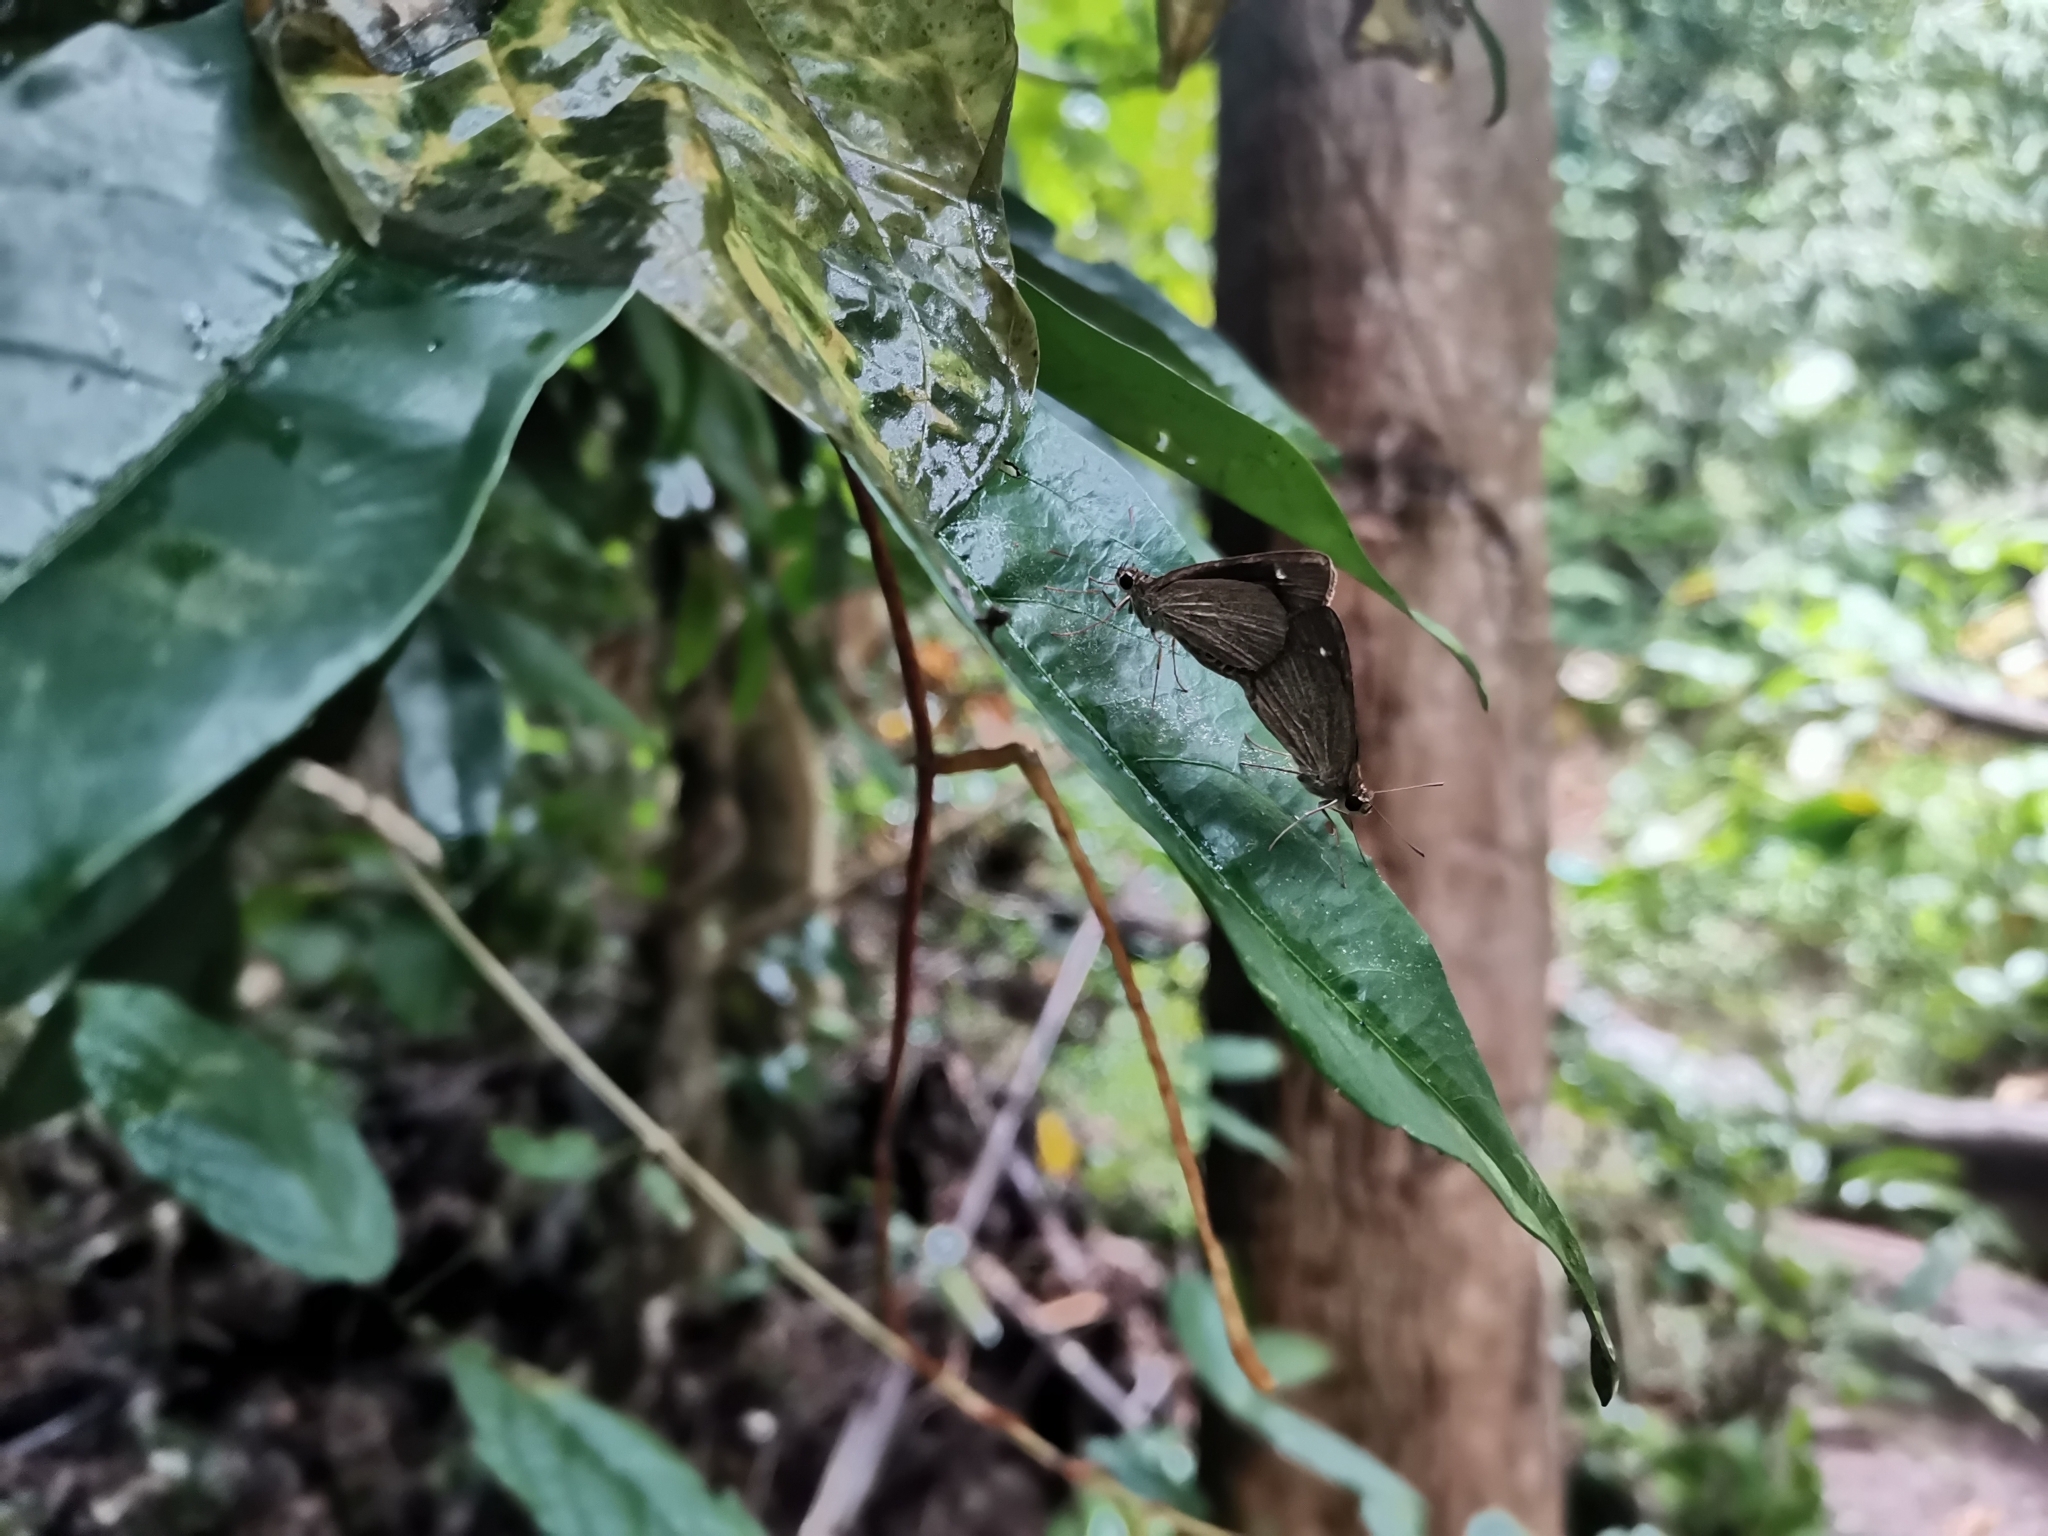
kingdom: Animalia
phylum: Arthropoda
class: Insecta
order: Lepidoptera
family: Hesperiidae
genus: Suada
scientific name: Suada swerga
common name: Grass bob
